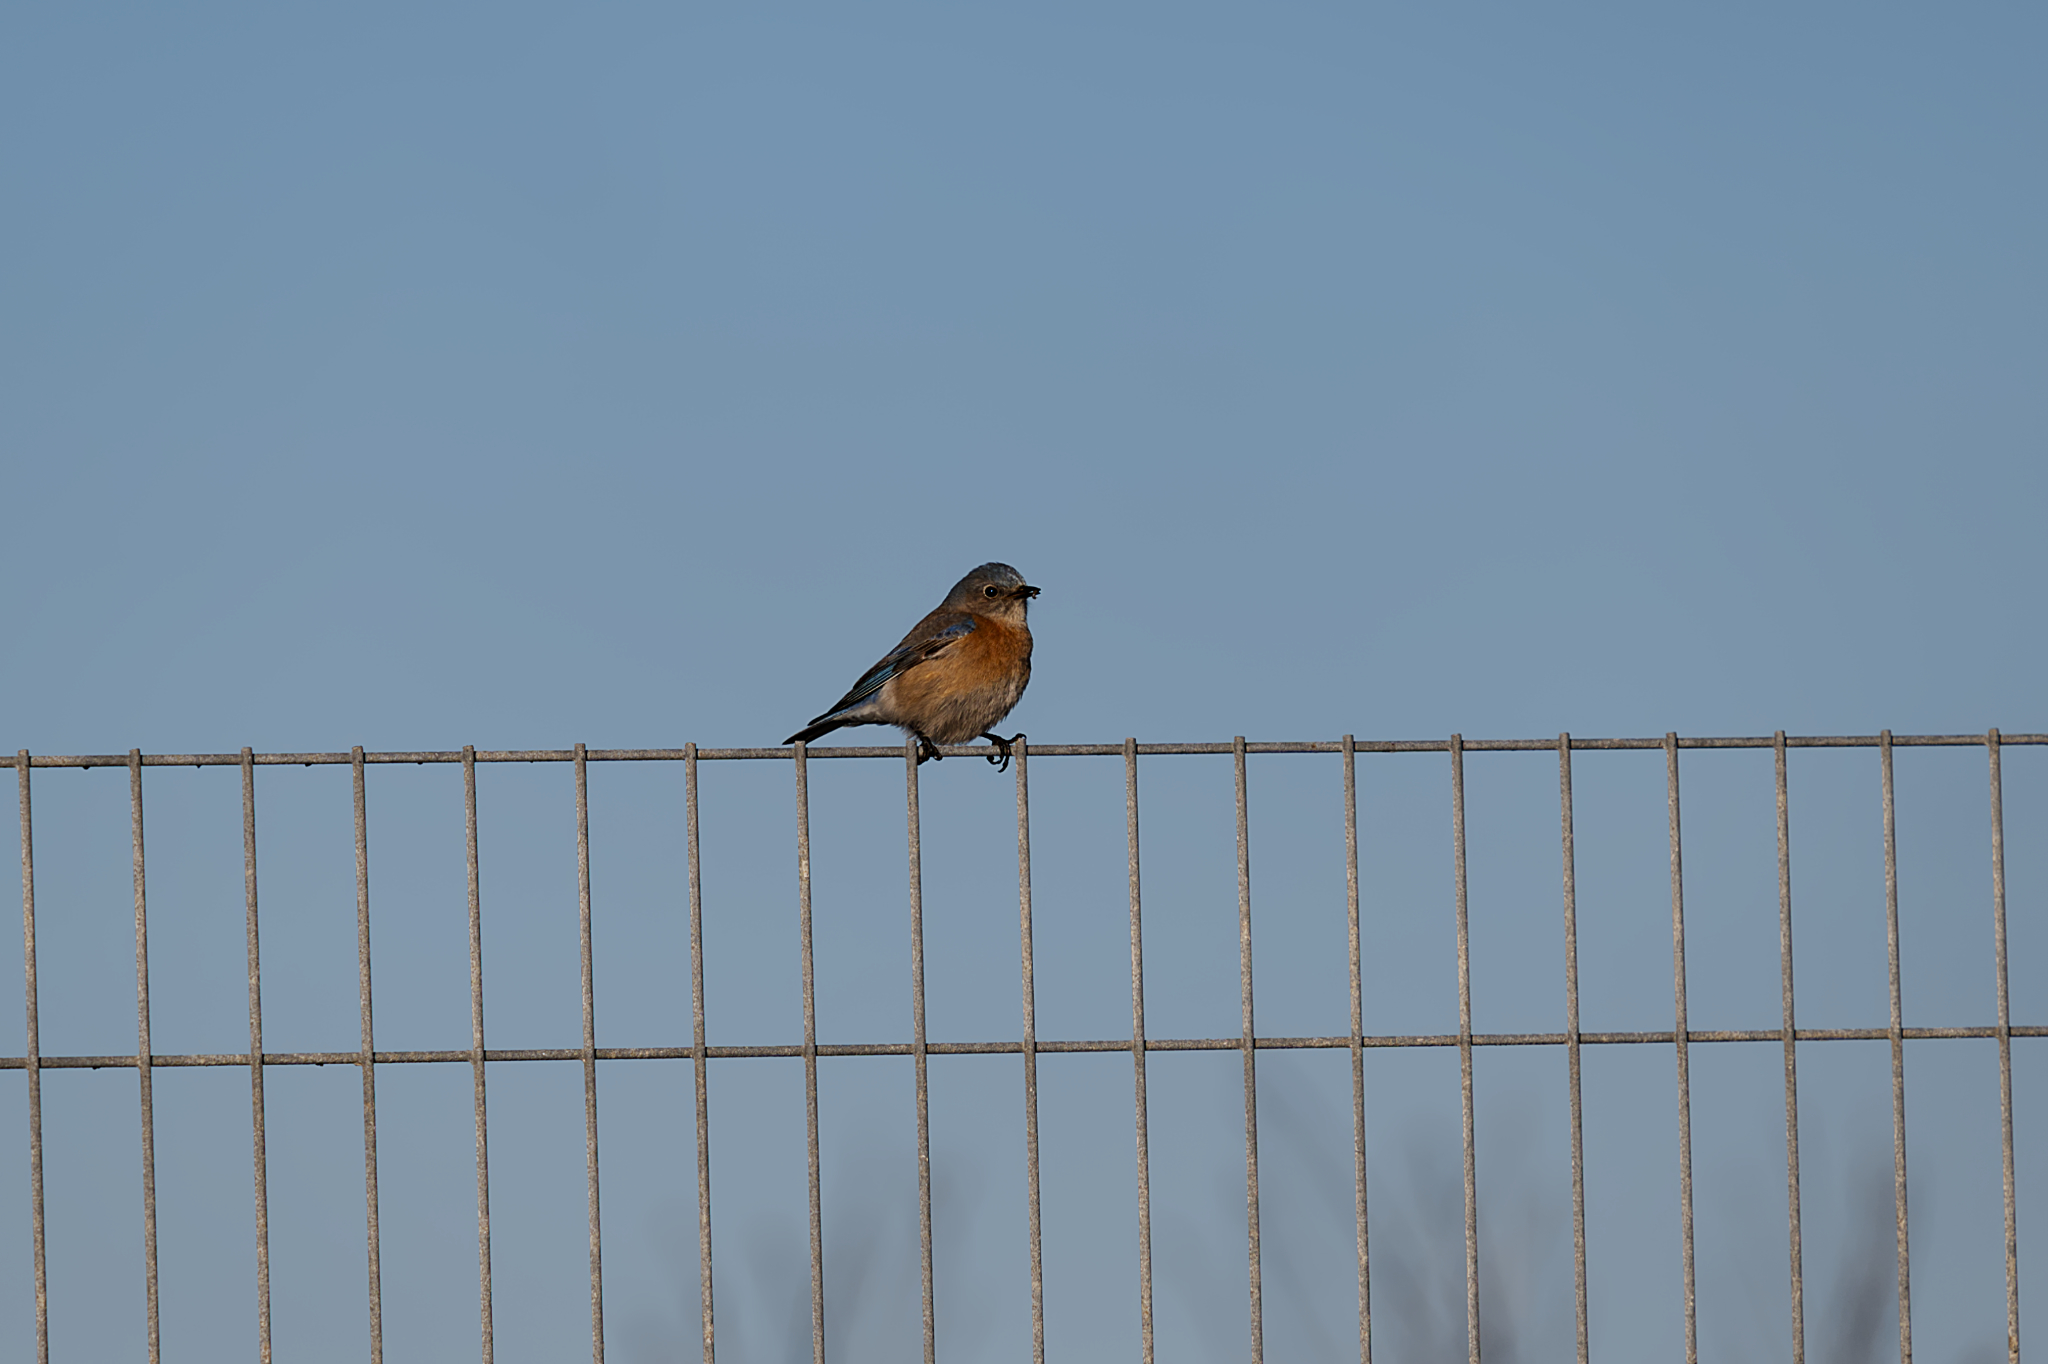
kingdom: Animalia
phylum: Chordata
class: Aves
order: Passeriformes
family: Turdidae
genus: Sialia
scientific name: Sialia mexicana
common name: Western bluebird
